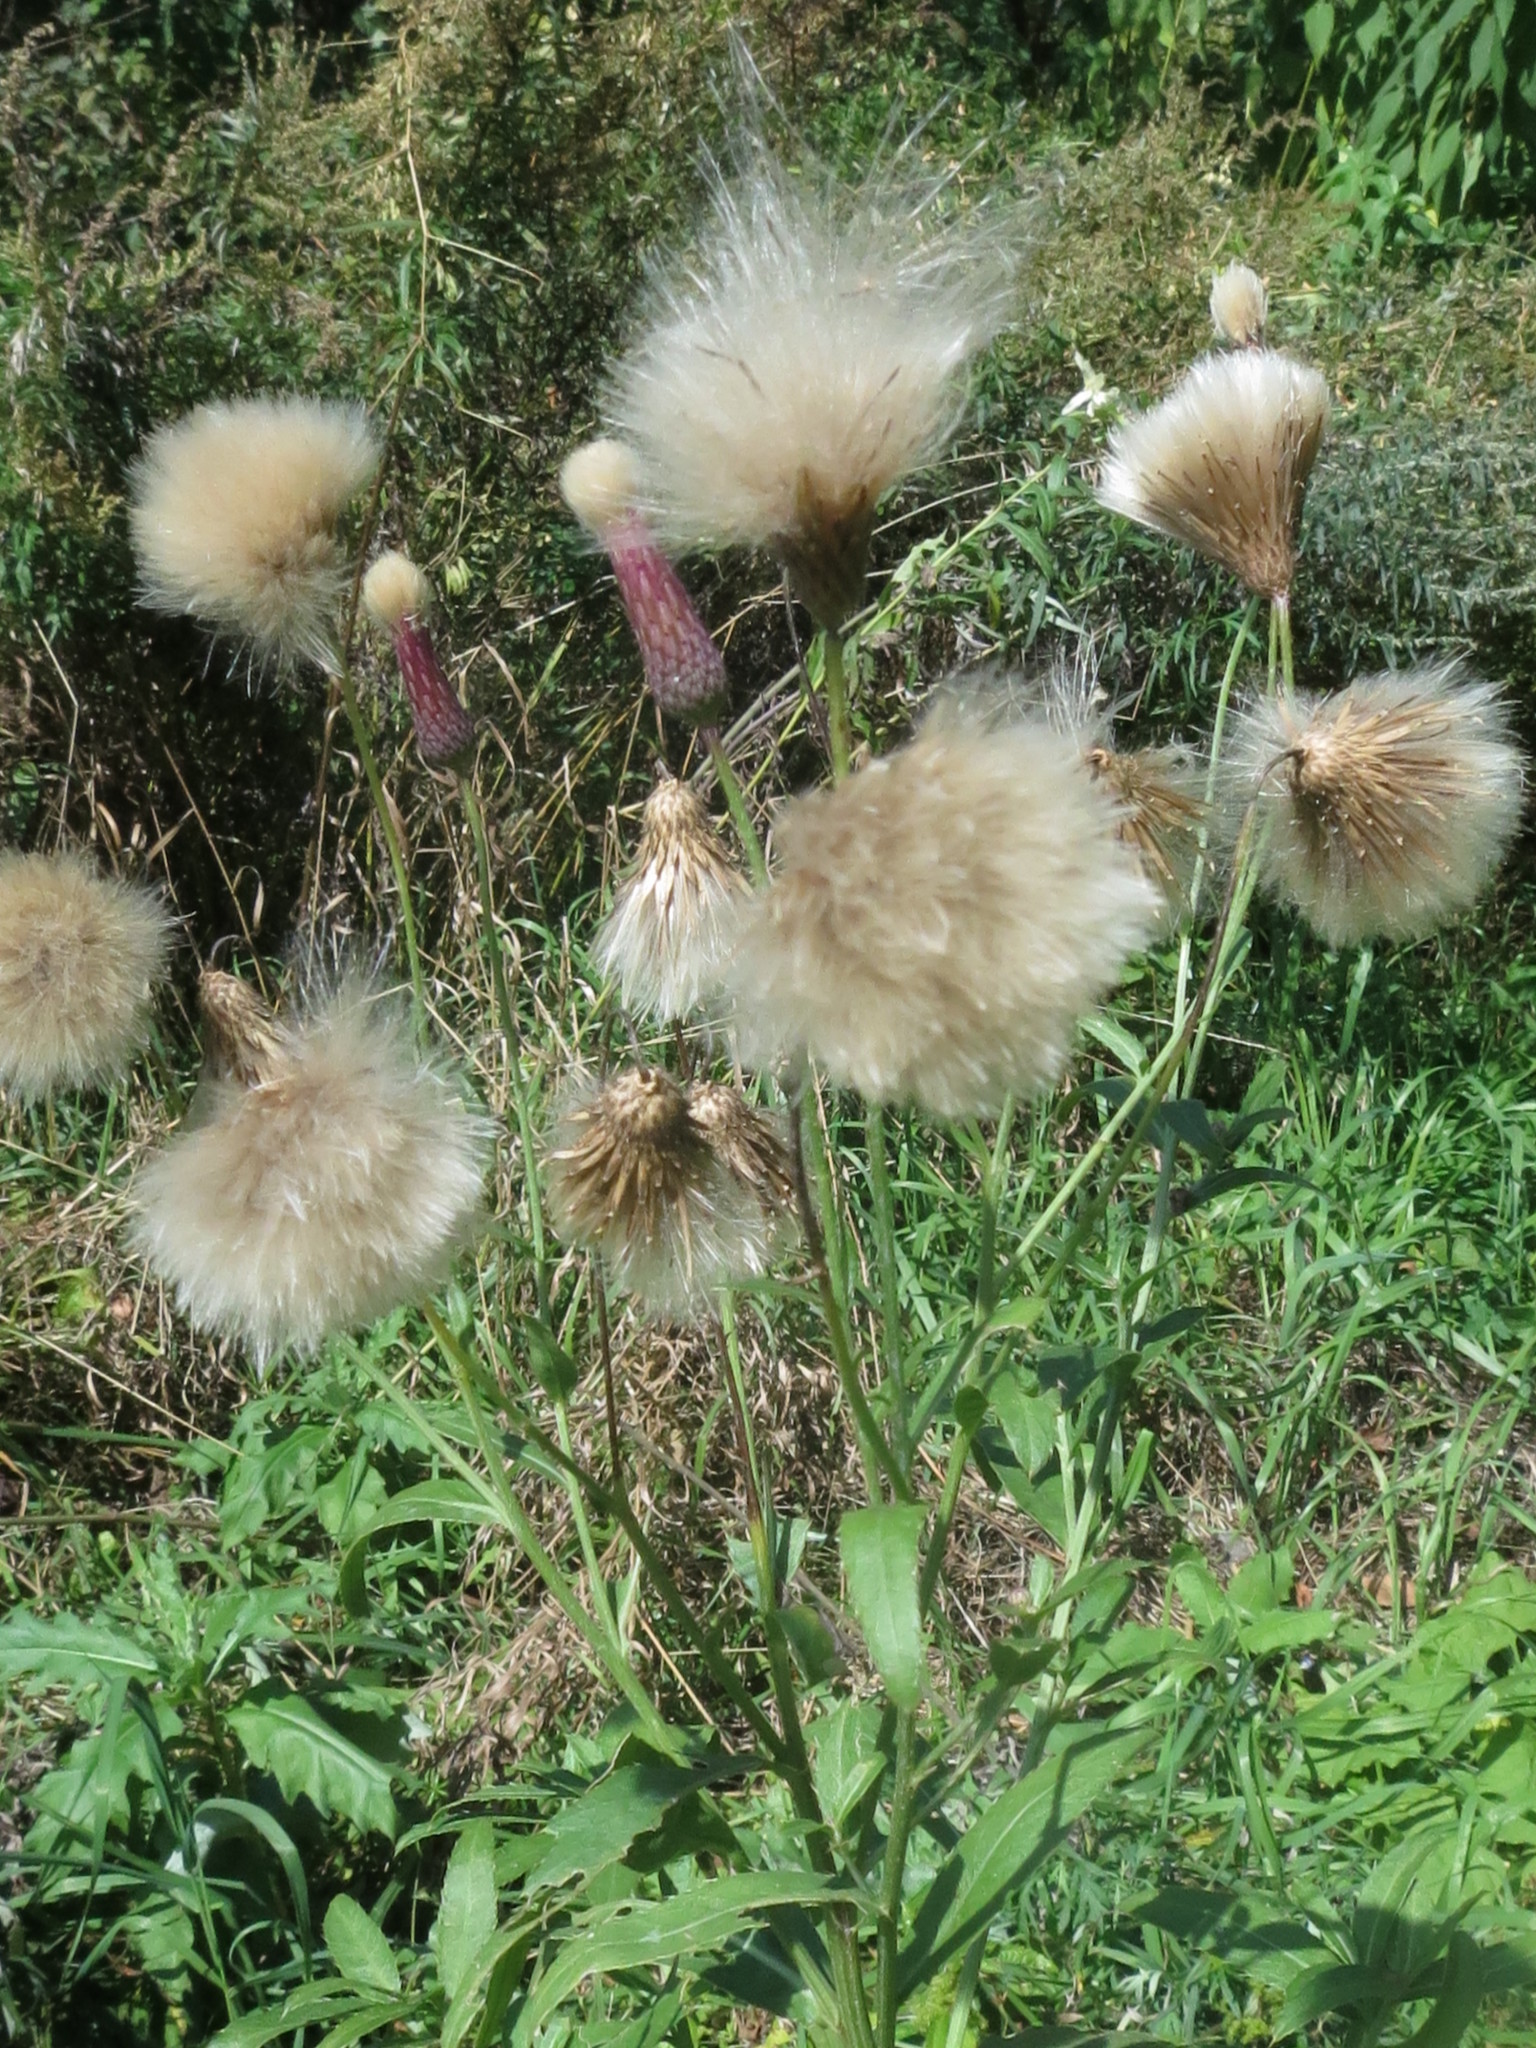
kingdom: Plantae
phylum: Tracheophyta
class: Magnoliopsida
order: Asterales
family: Asteraceae
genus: Cirsium
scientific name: Cirsium arvense
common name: Creeping thistle
